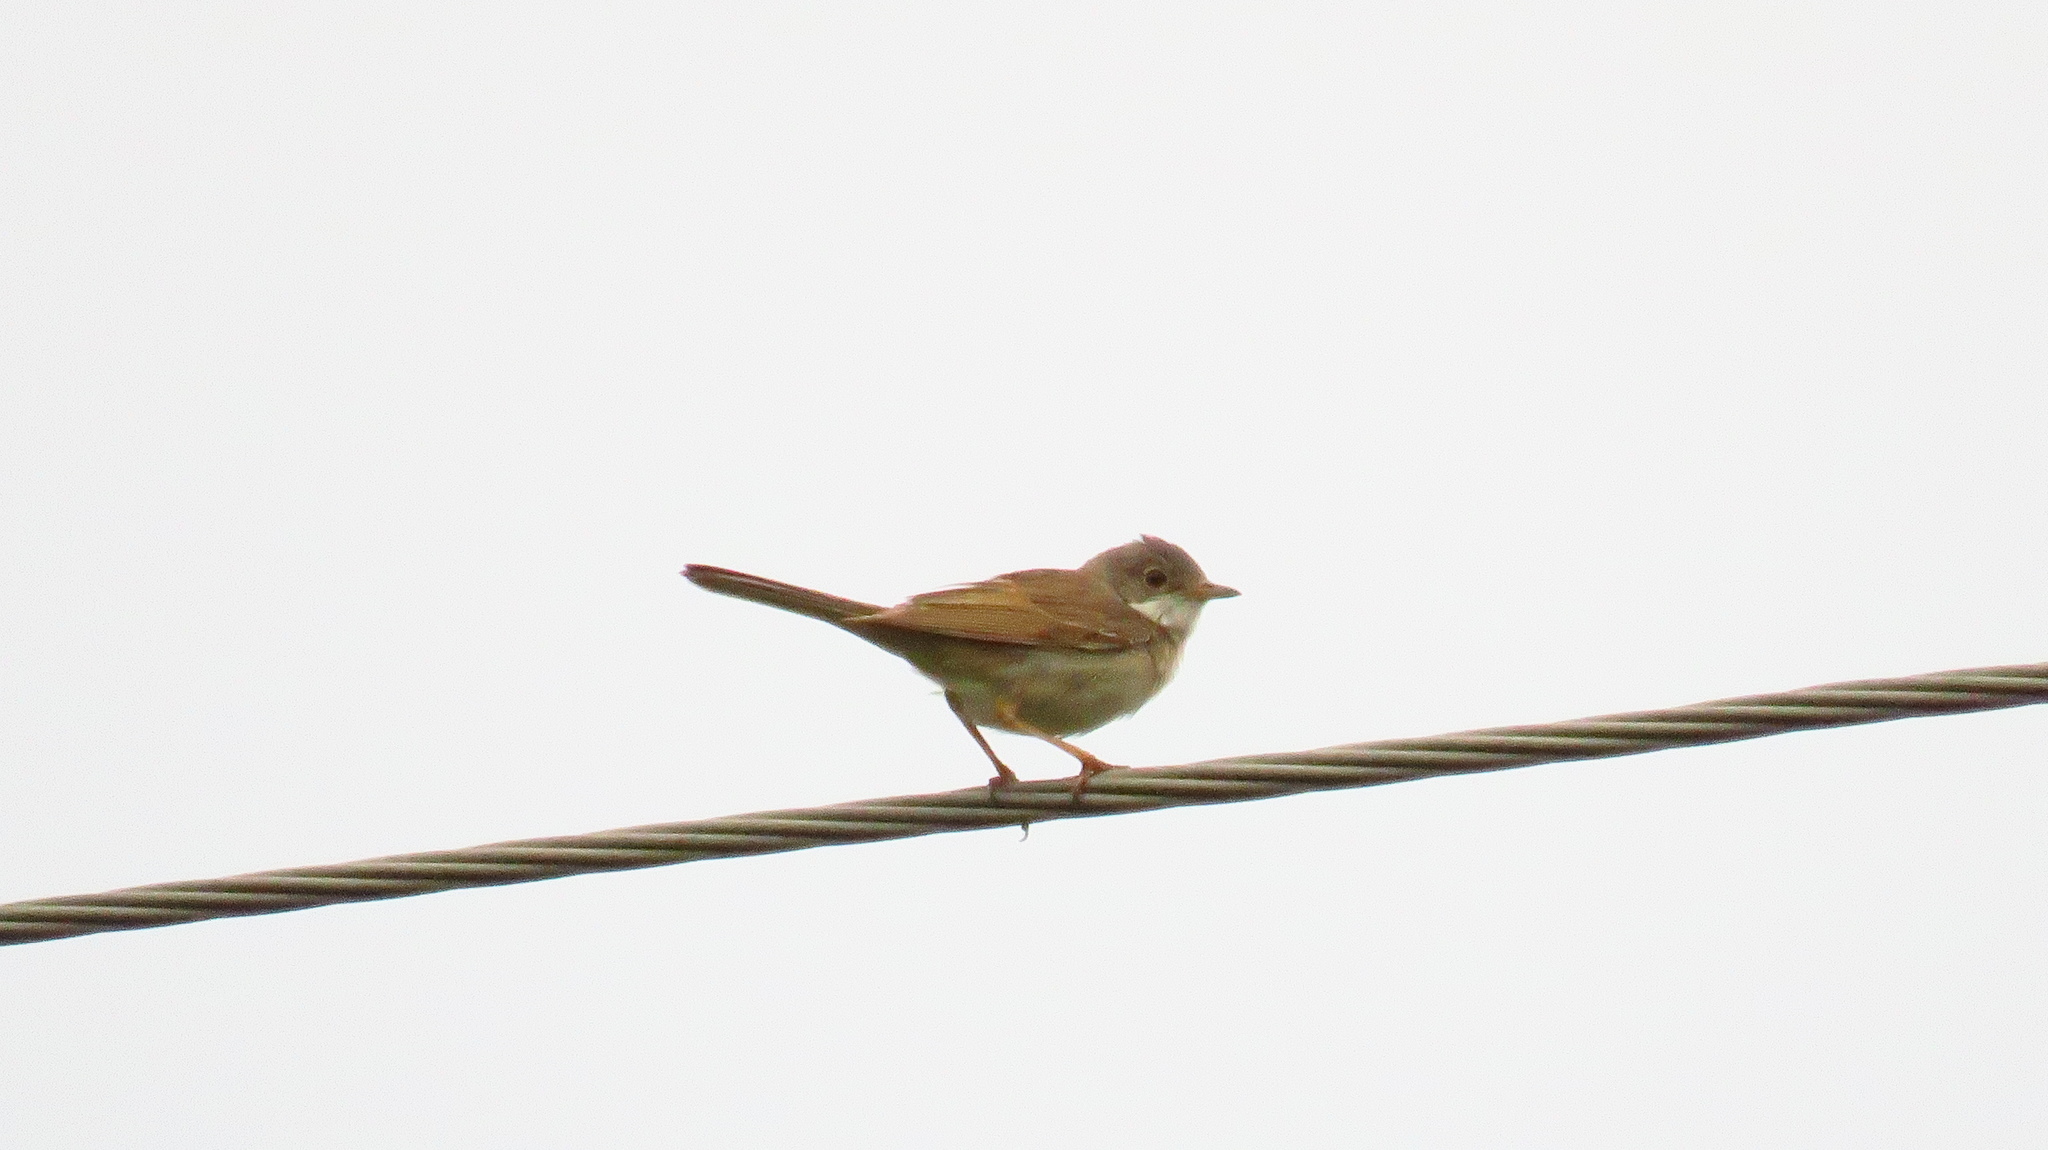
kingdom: Animalia
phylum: Chordata
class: Aves
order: Passeriformes
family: Sylviidae
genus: Sylvia
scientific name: Sylvia communis
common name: Common whitethroat
